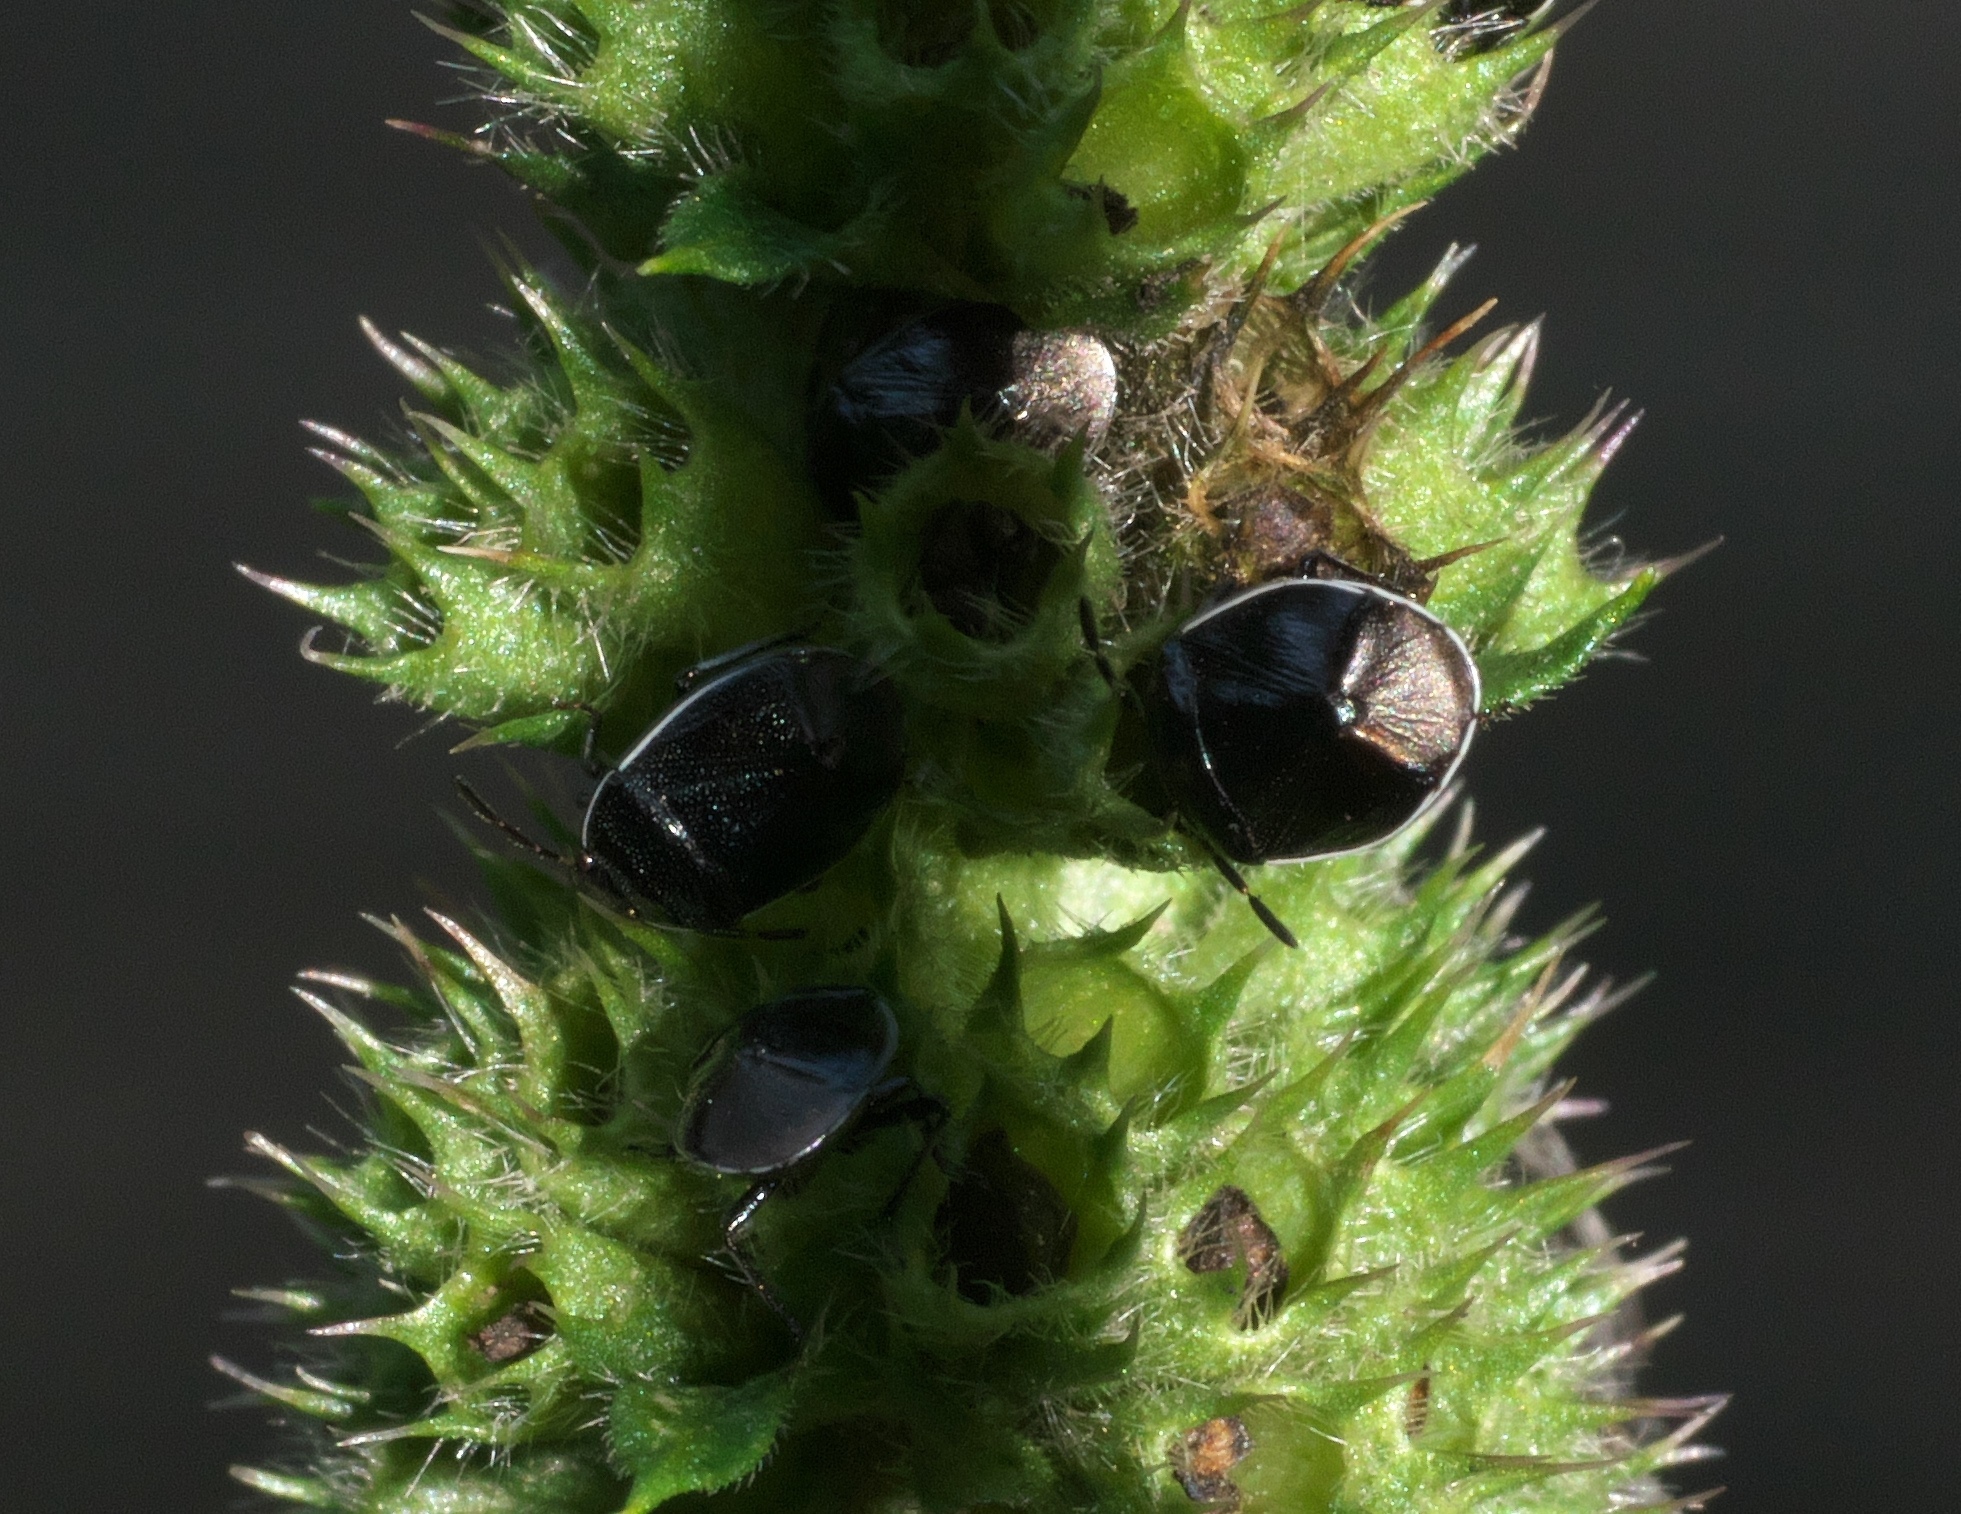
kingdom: Animalia
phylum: Arthropoda
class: Insecta
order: Hemiptera
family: Cydnidae
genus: Sehirus
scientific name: Sehirus cinctus
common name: White-margined burrower bug
